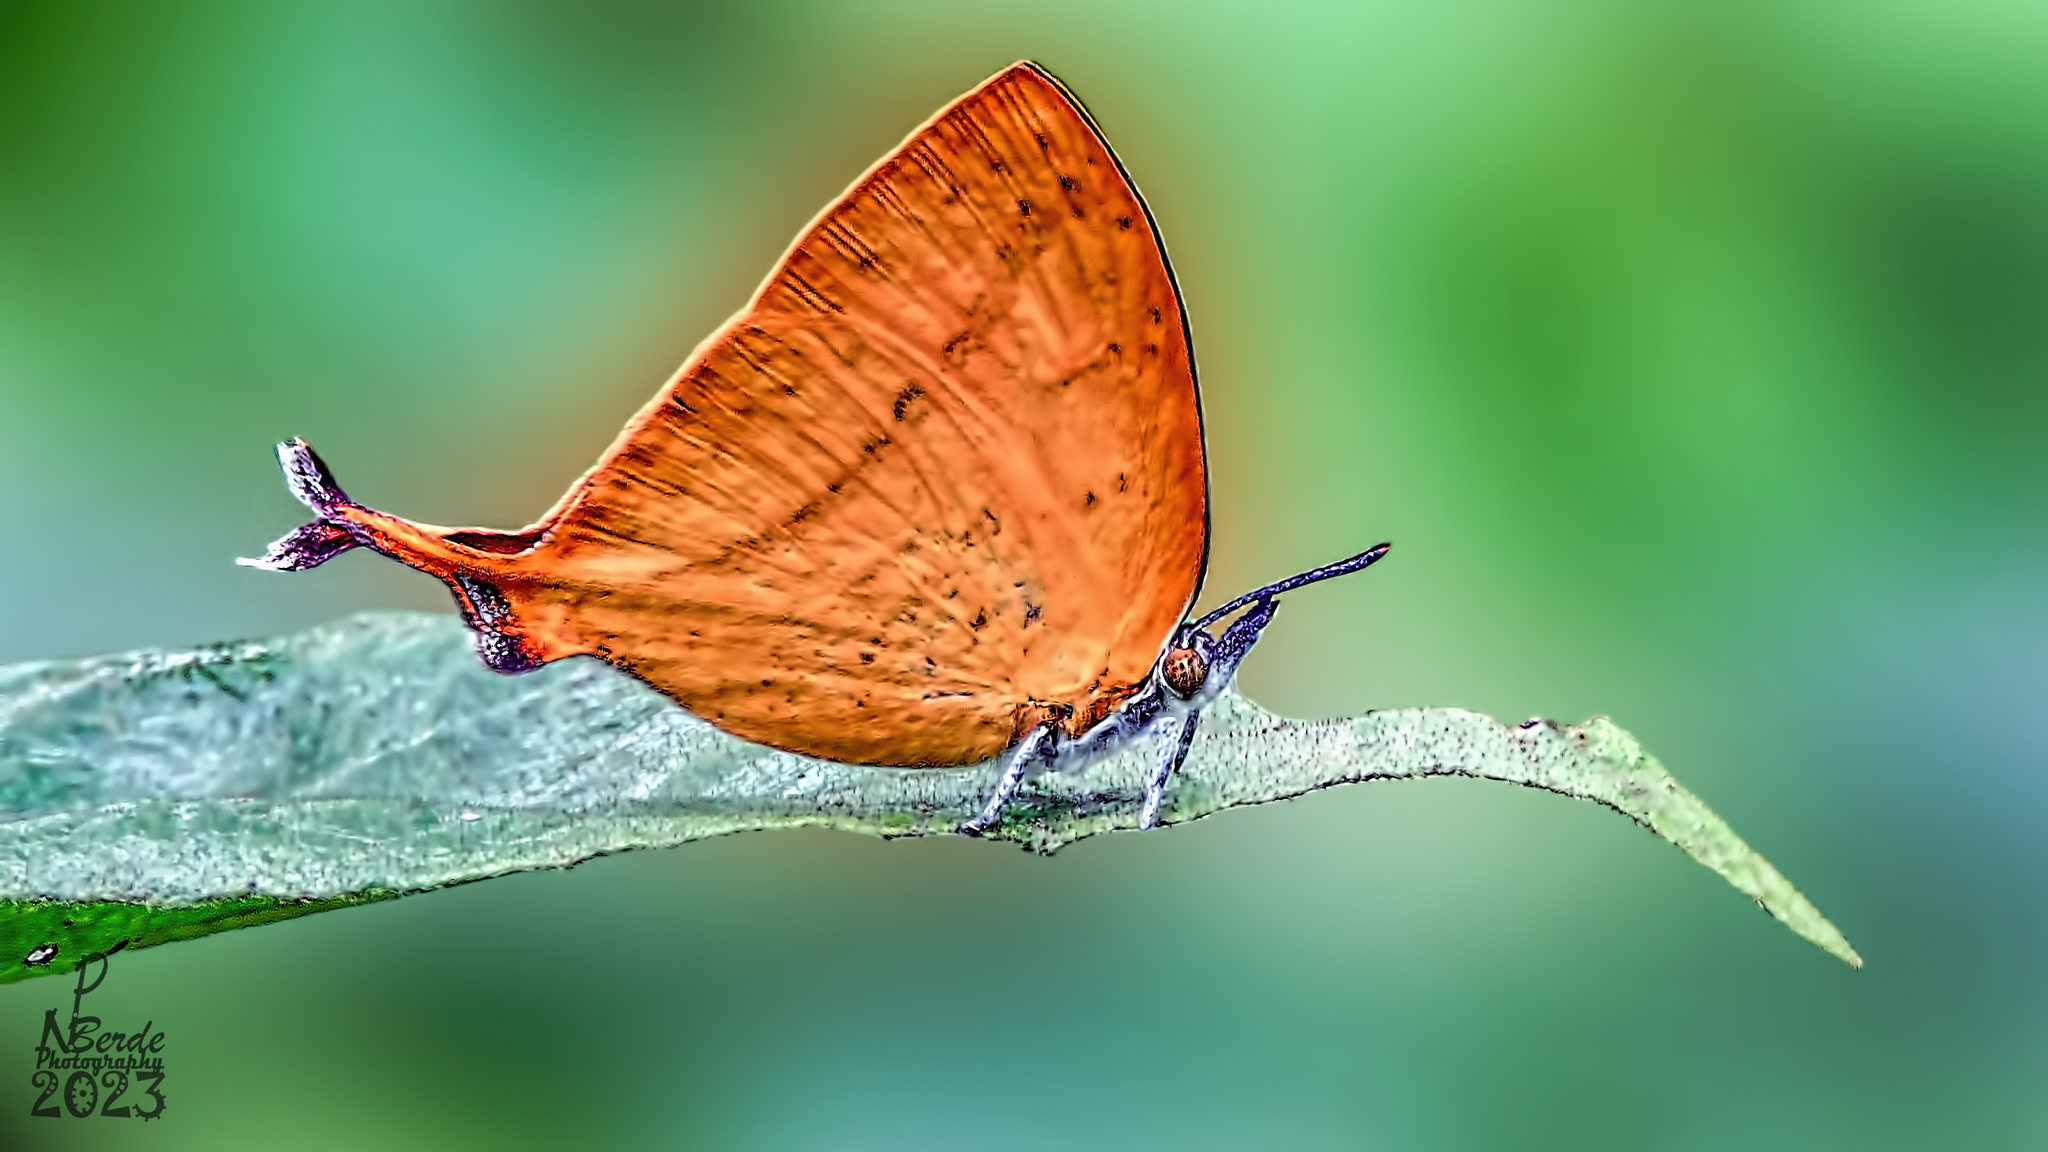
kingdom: Animalia
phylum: Arthropoda
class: Insecta
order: Lepidoptera
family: Lycaenidae
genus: Loxura
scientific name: Loxura atymnus
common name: Common yamfly
